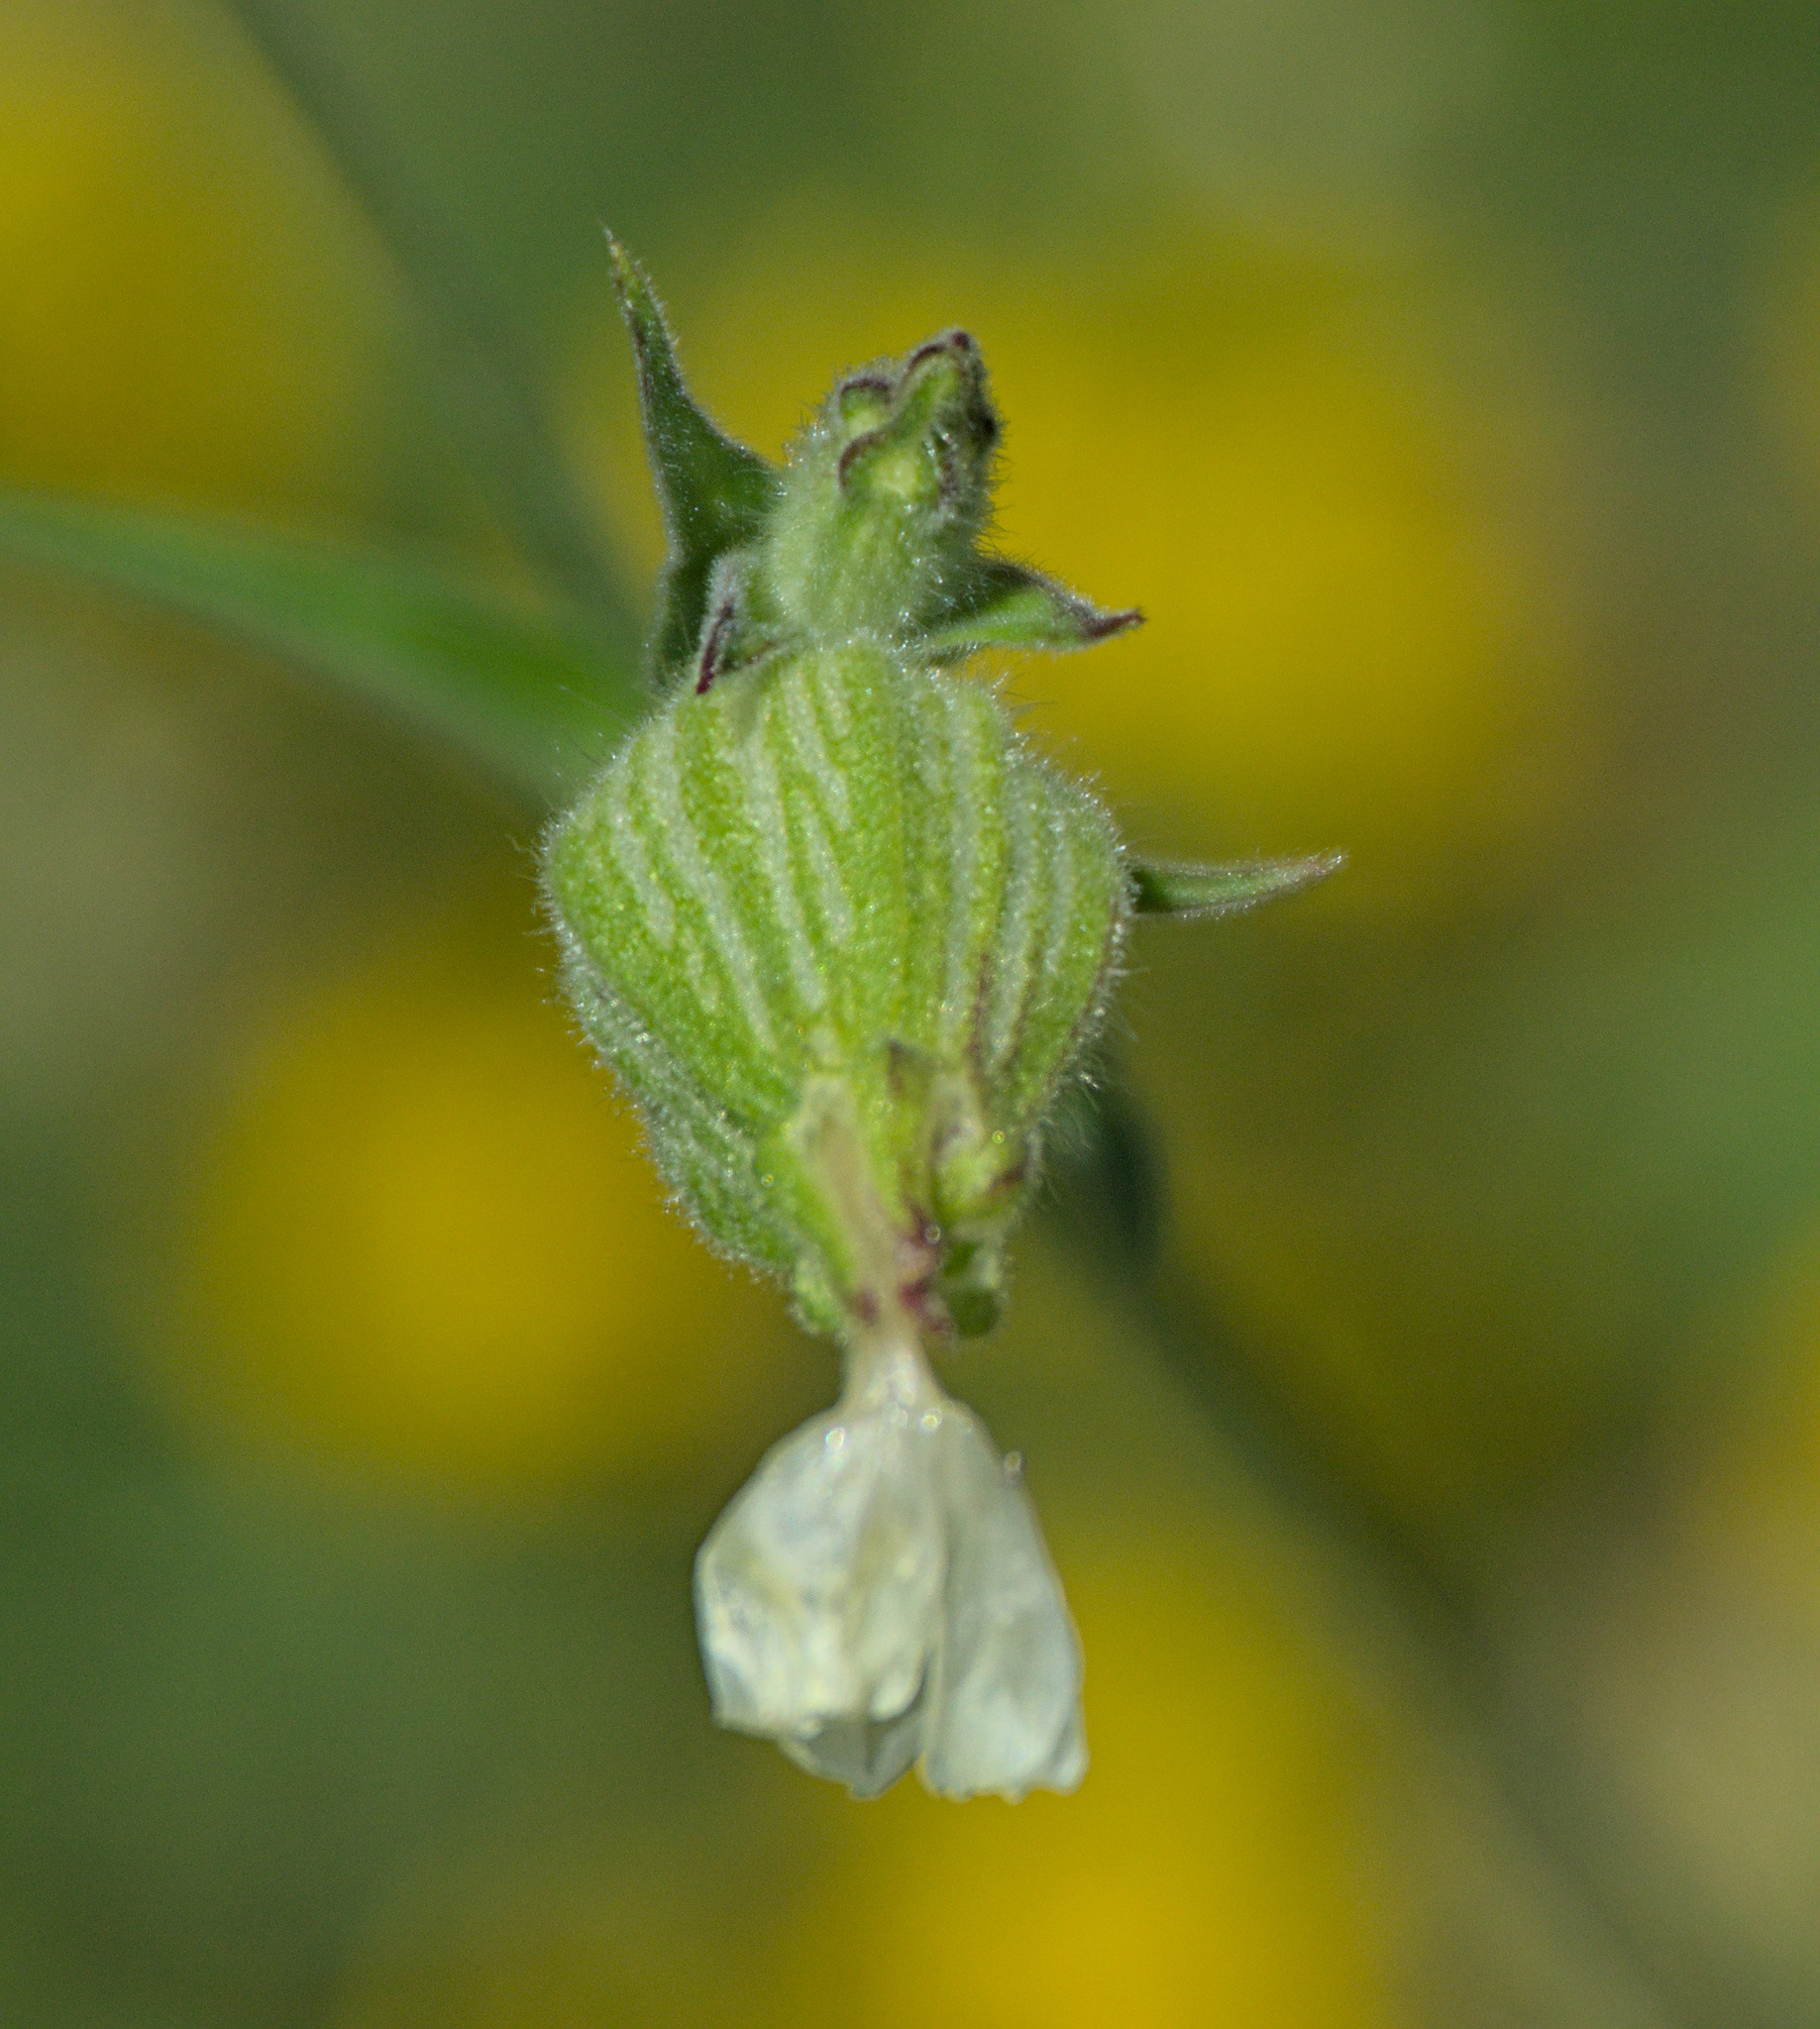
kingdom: Plantae
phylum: Tracheophyta
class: Magnoliopsida
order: Caryophyllales
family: Caryophyllaceae
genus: Silene
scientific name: Silene latifolia
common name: White campion
